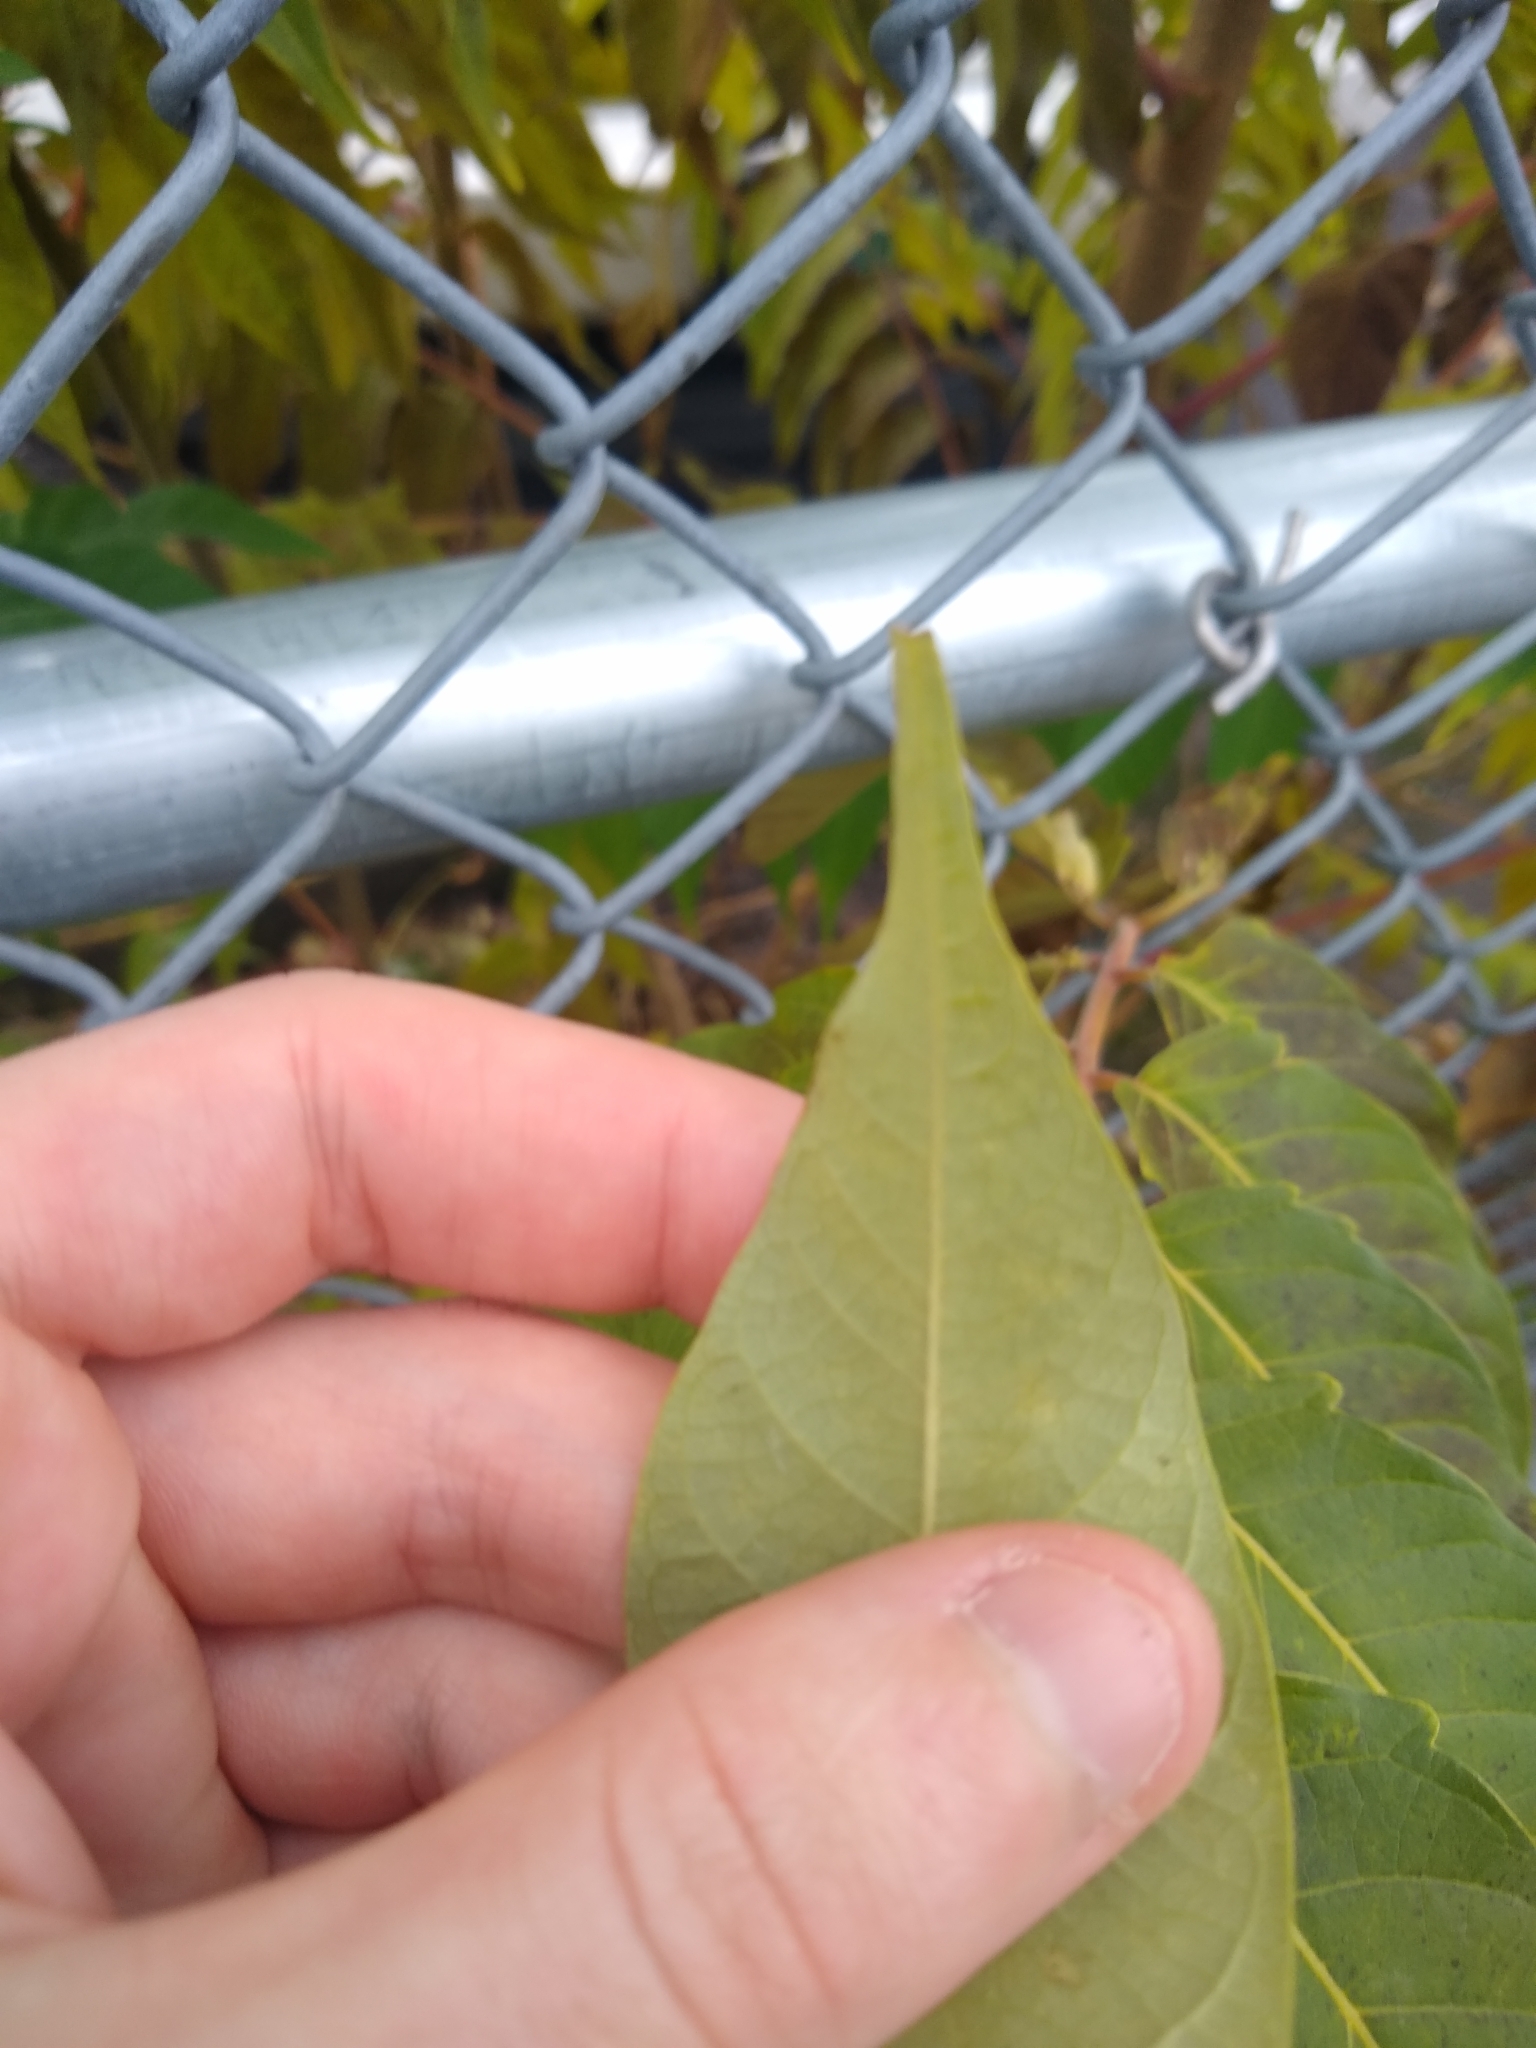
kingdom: Plantae
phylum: Tracheophyta
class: Magnoliopsida
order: Sapindales
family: Simaroubaceae
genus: Ailanthus
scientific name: Ailanthus altissima
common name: Tree-of-heaven
